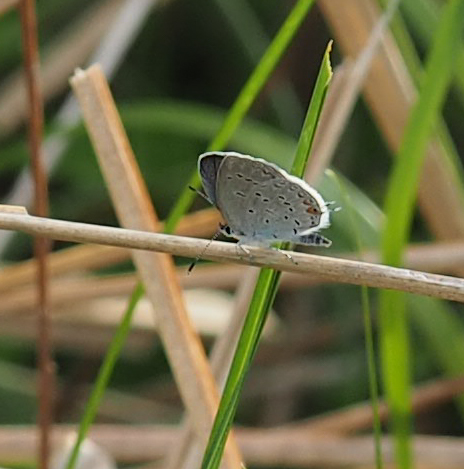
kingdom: Animalia
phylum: Arthropoda
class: Insecta
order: Lepidoptera
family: Lycaenidae
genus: Elkalyce
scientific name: Elkalyce comyntas
